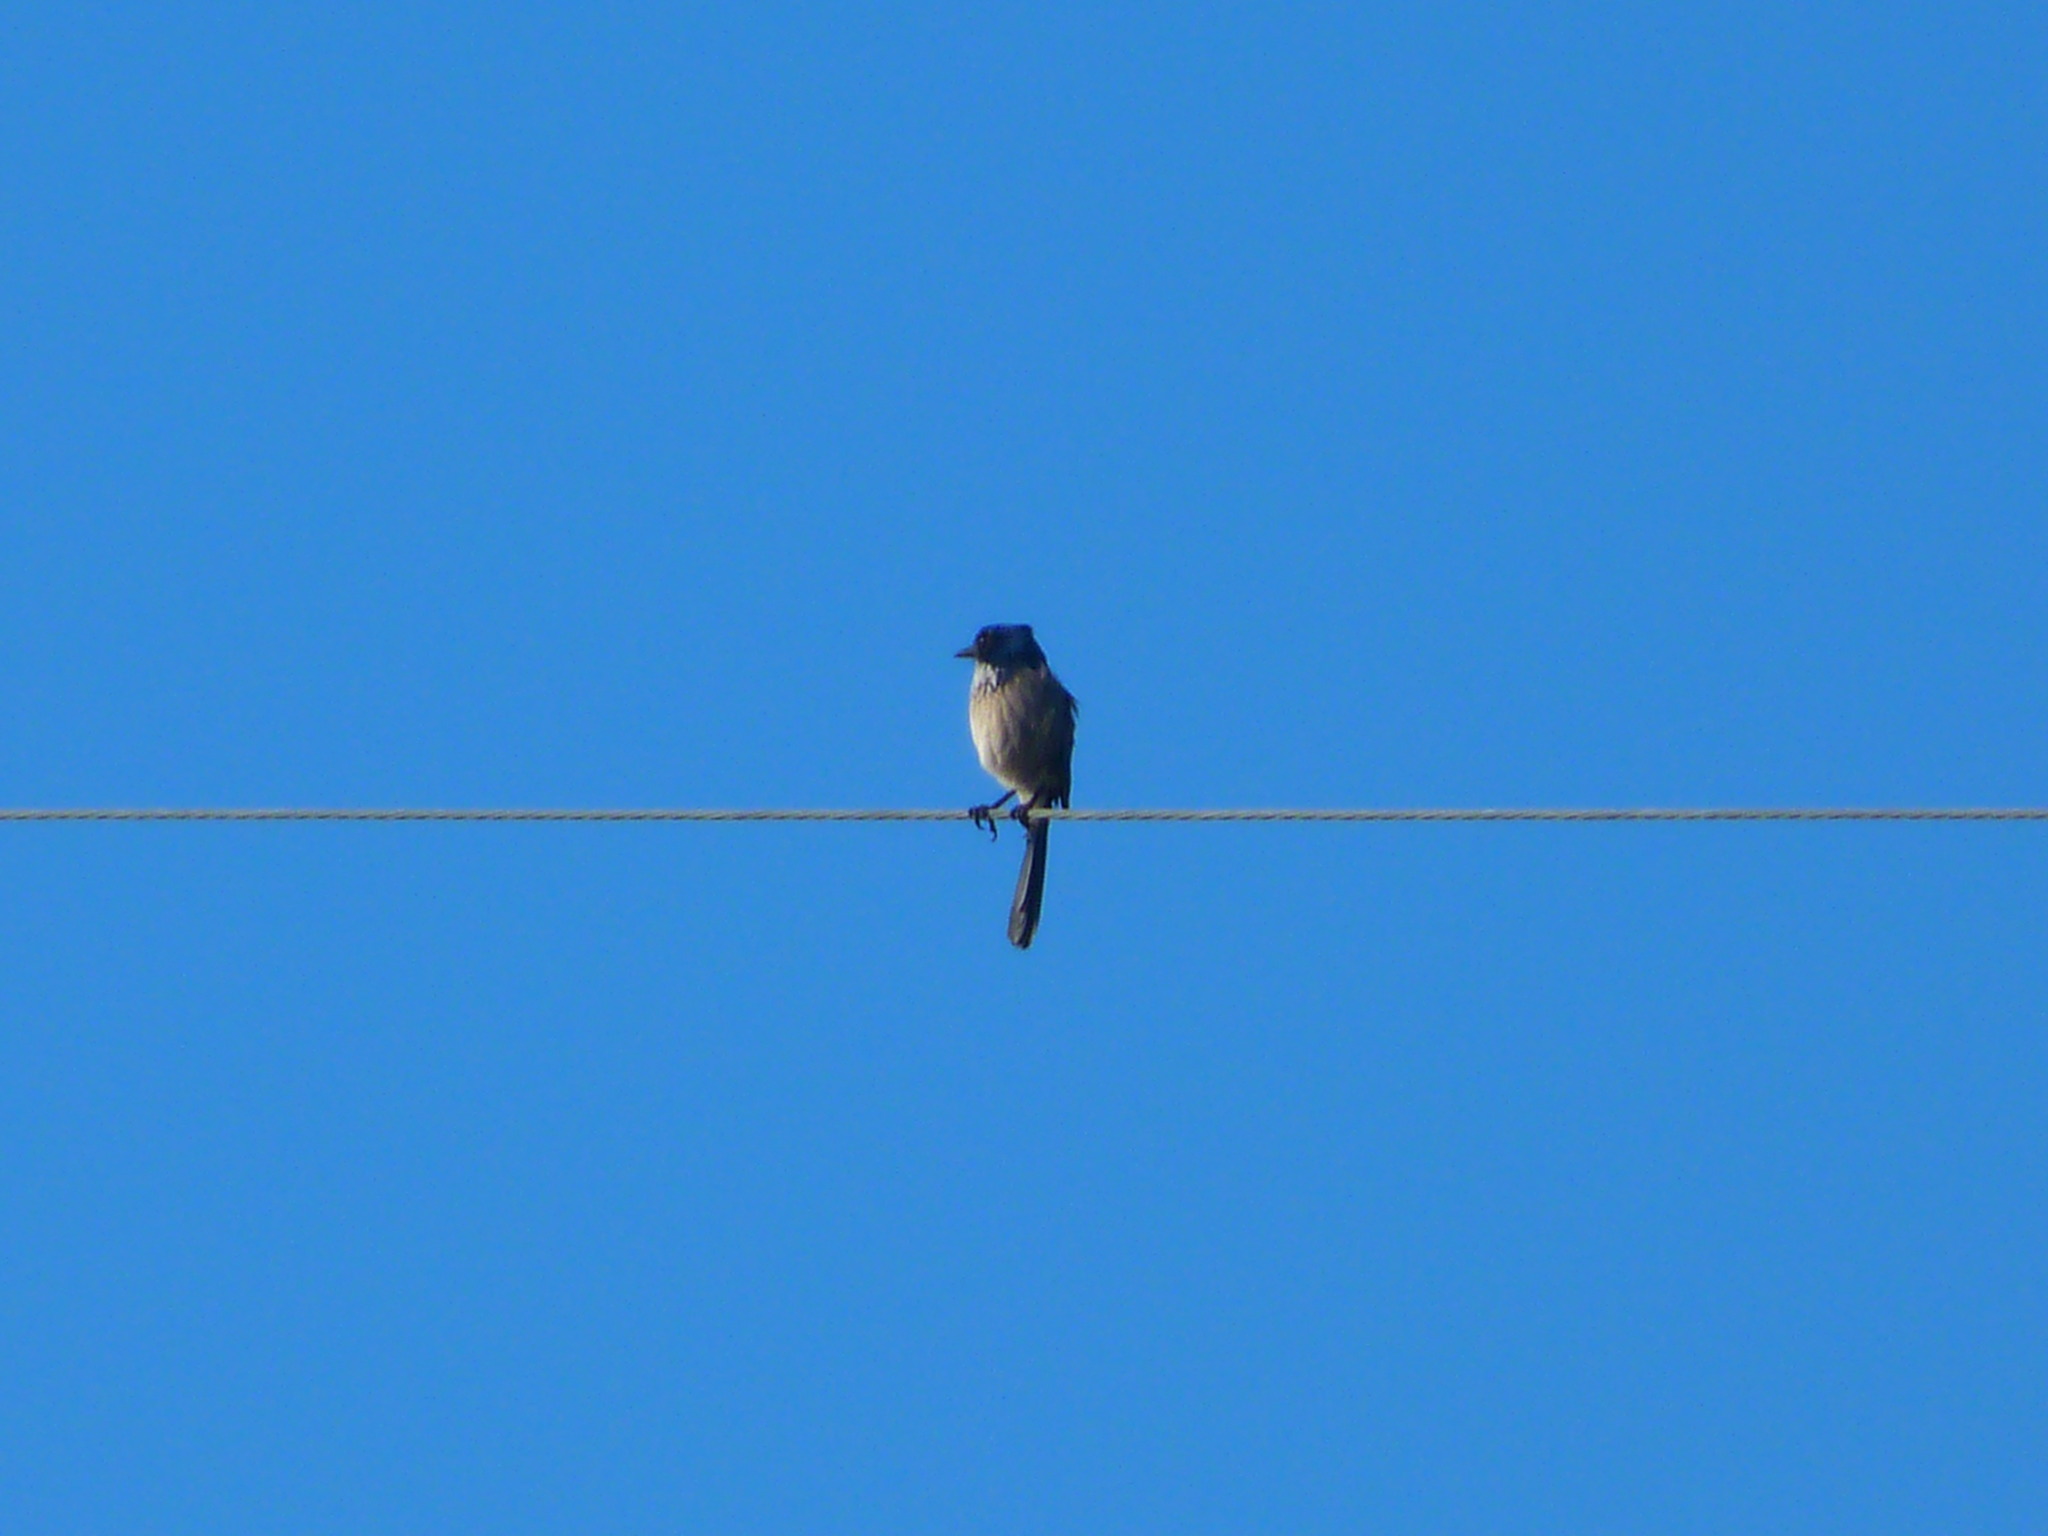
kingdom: Animalia
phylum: Chordata
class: Aves
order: Passeriformes
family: Corvidae
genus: Aphelocoma
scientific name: Aphelocoma californica
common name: California scrub-jay
